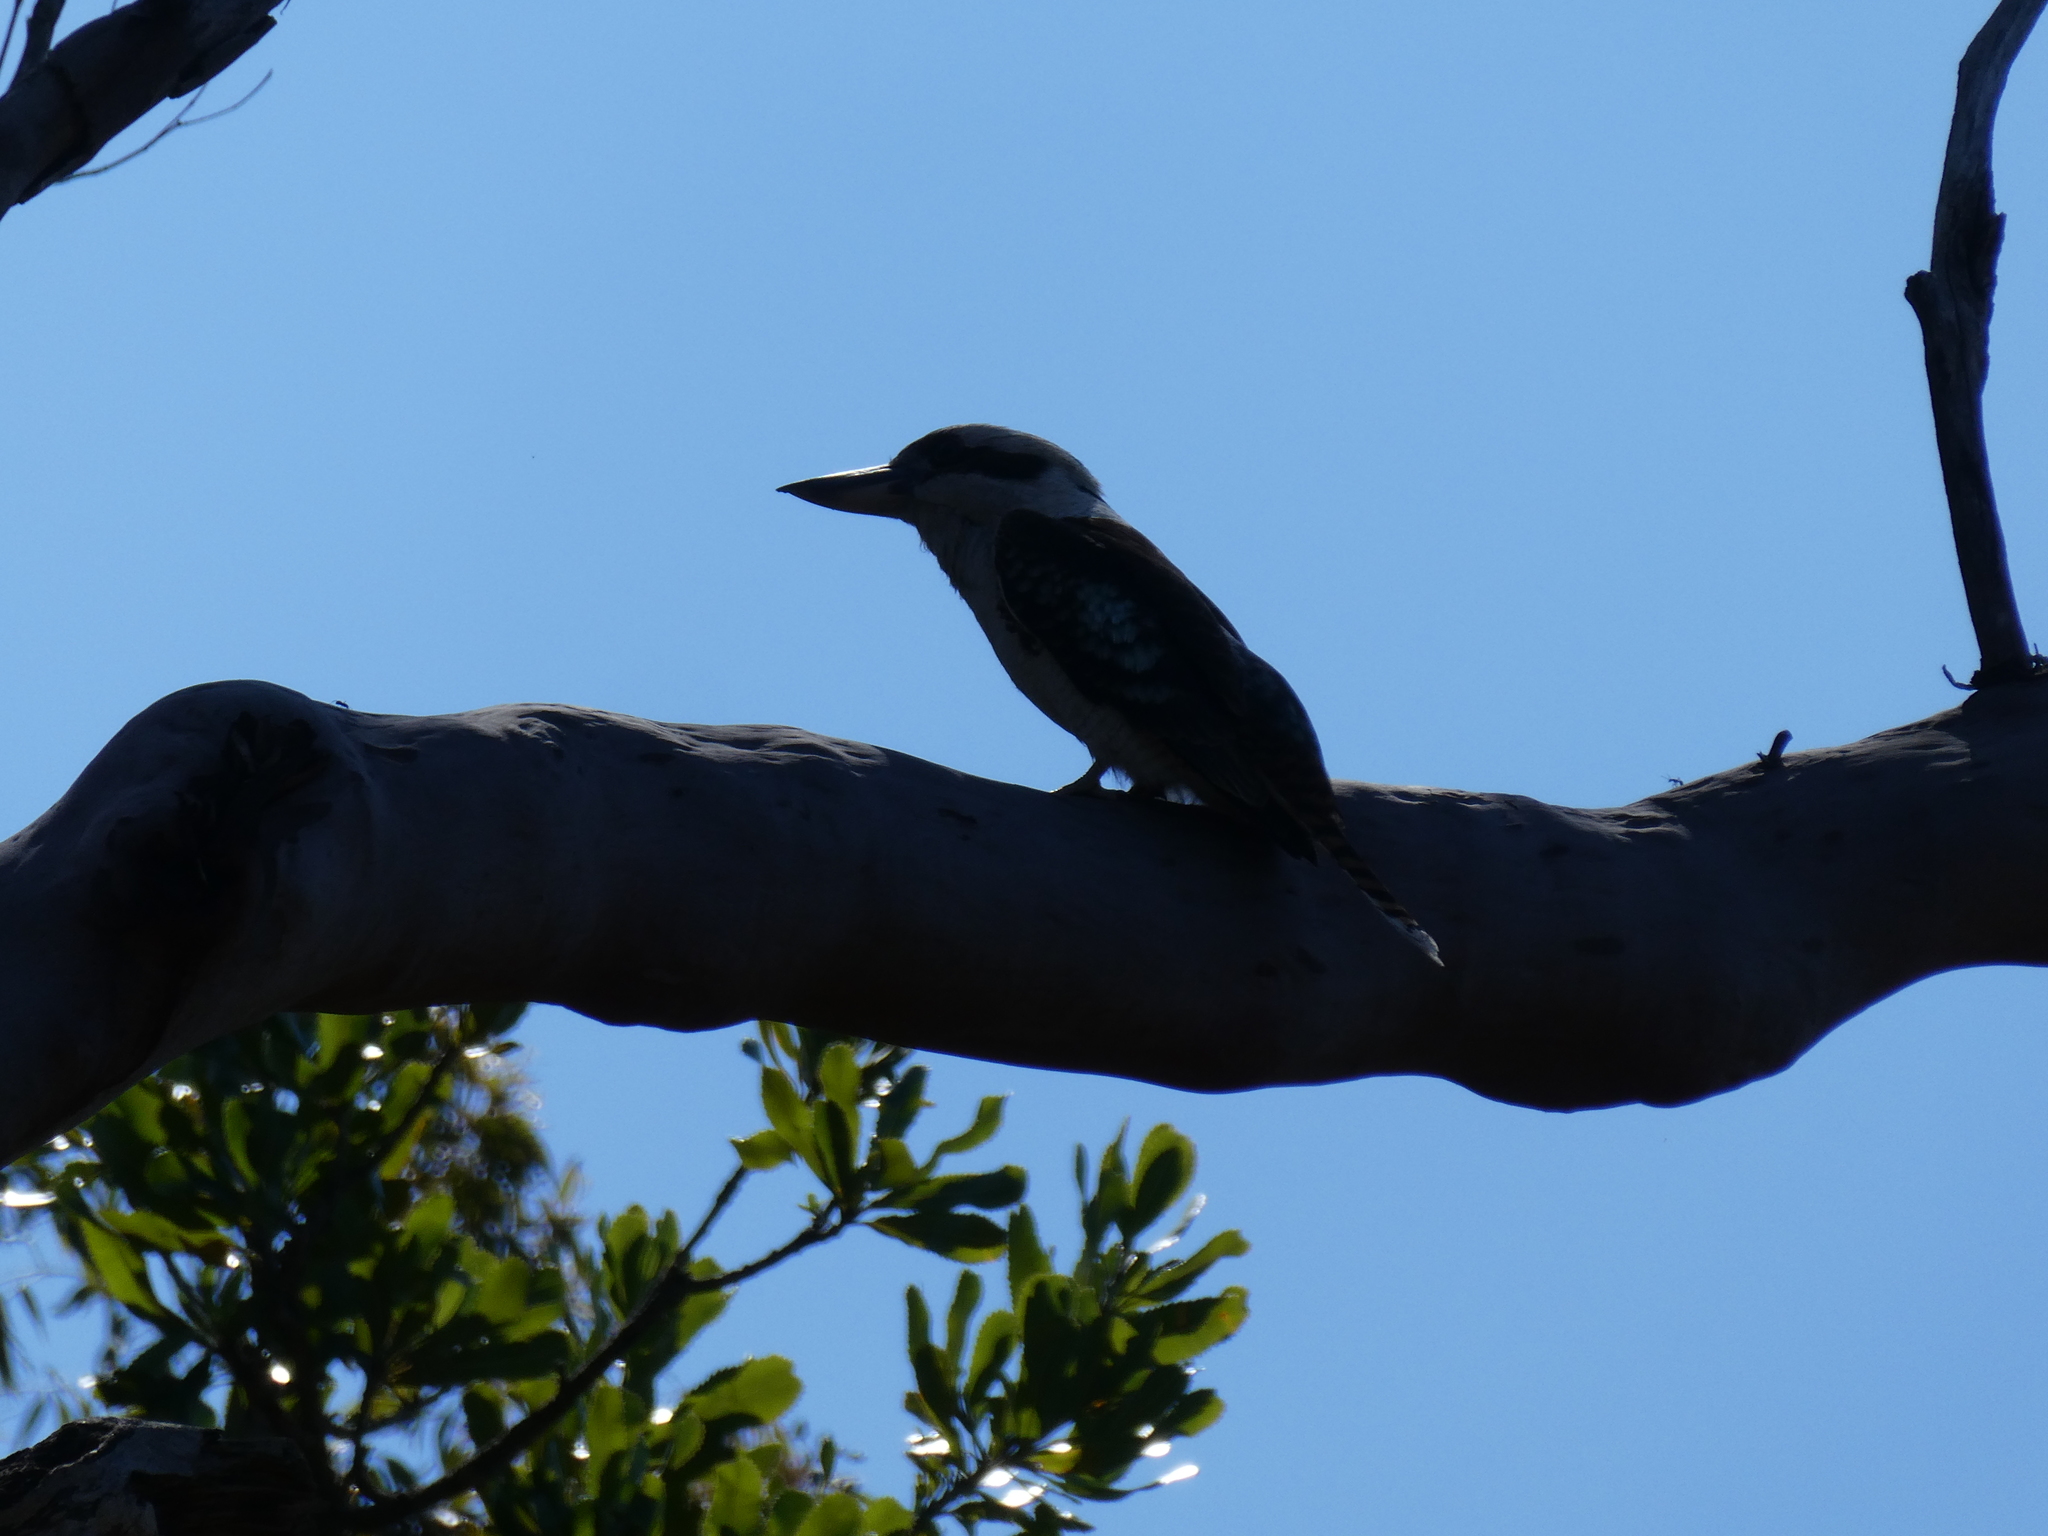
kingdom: Animalia
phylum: Chordata
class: Aves
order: Coraciiformes
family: Alcedinidae
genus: Dacelo
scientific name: Dacelo novaeguineae
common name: Laughing kookaburra
